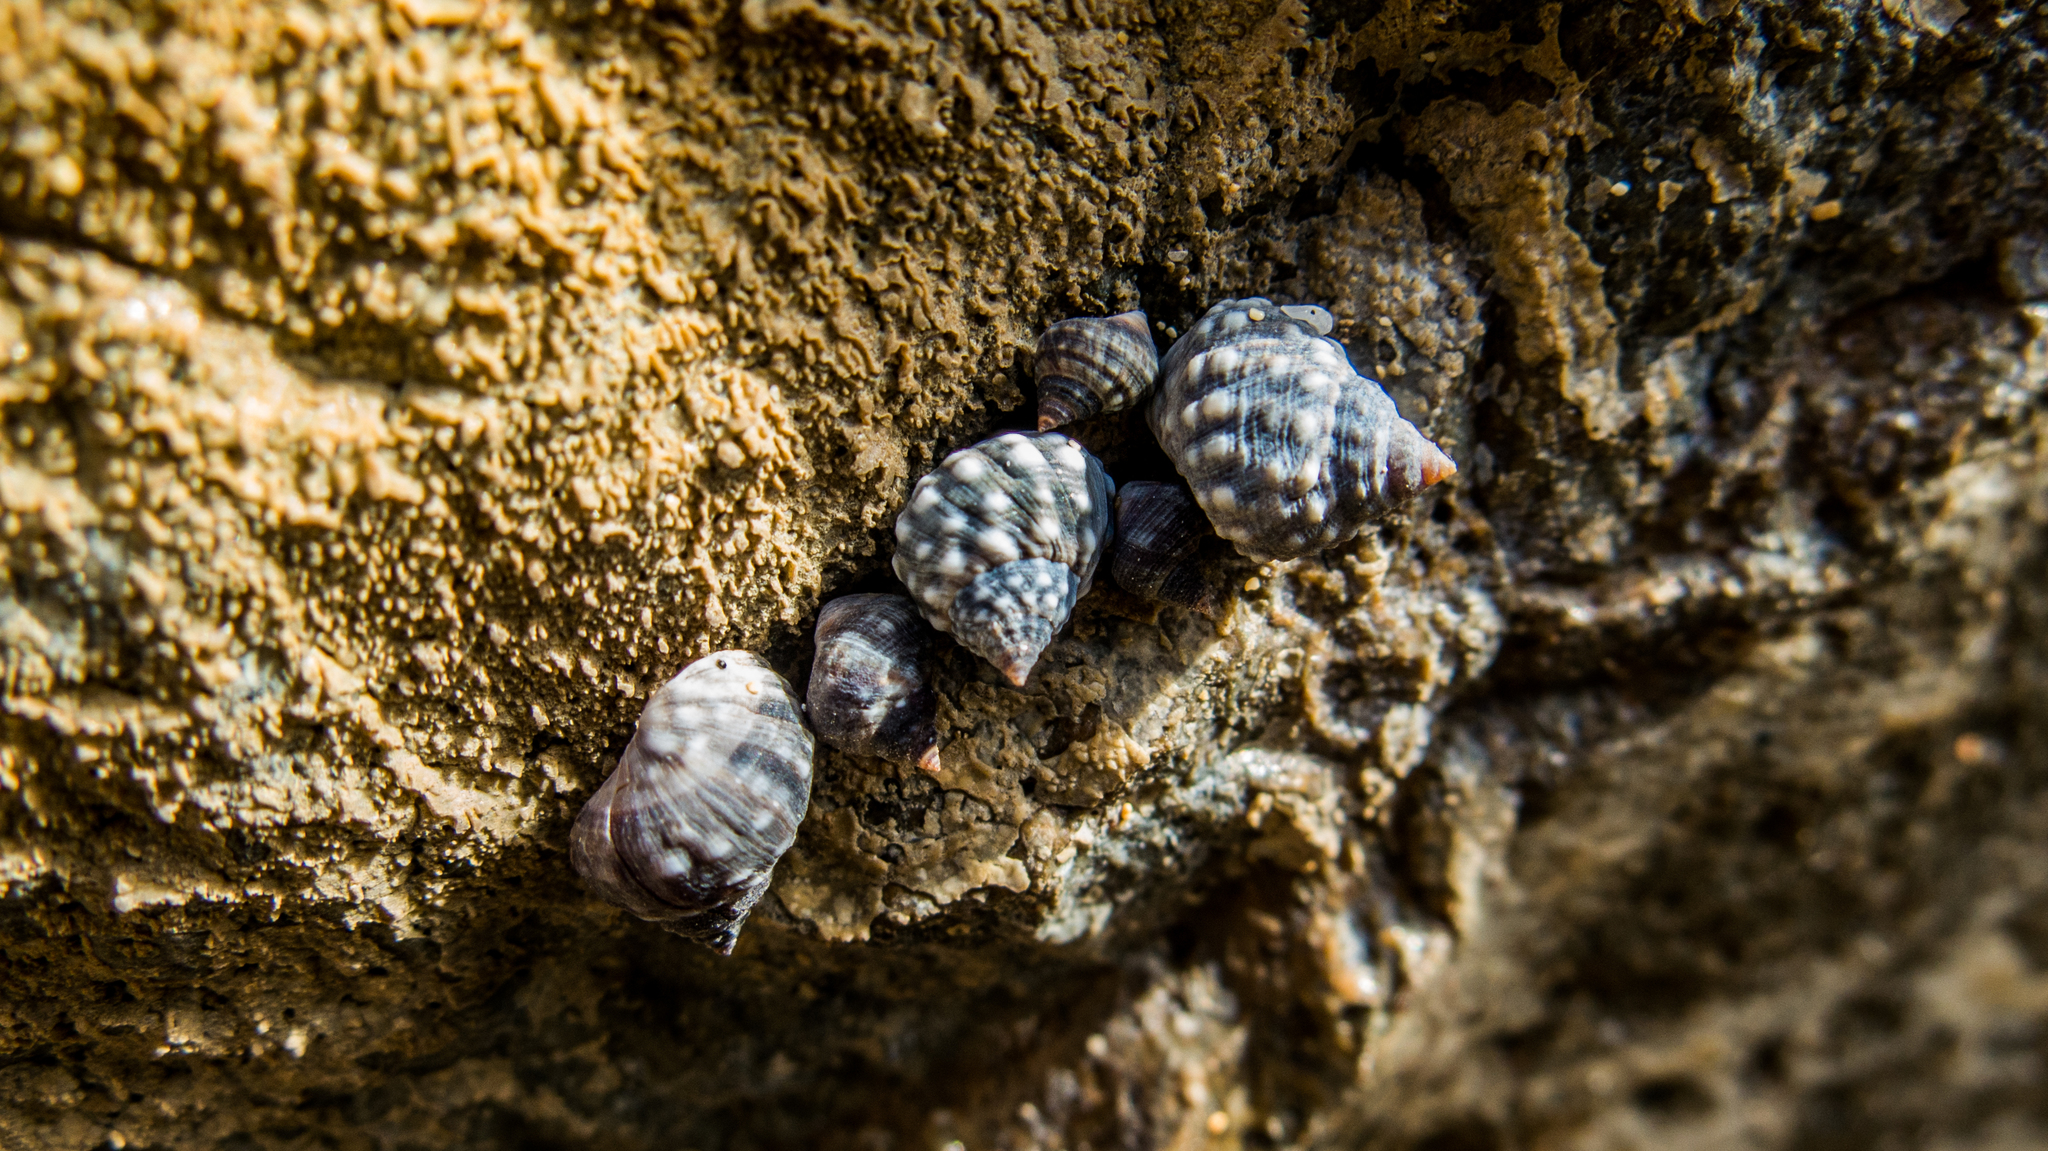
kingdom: Animalia
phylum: Mollusca
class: Gastropoda
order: Littorinimorpha
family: Littorinidae
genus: Echinolittorina
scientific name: Echinolittorina vermeiji
